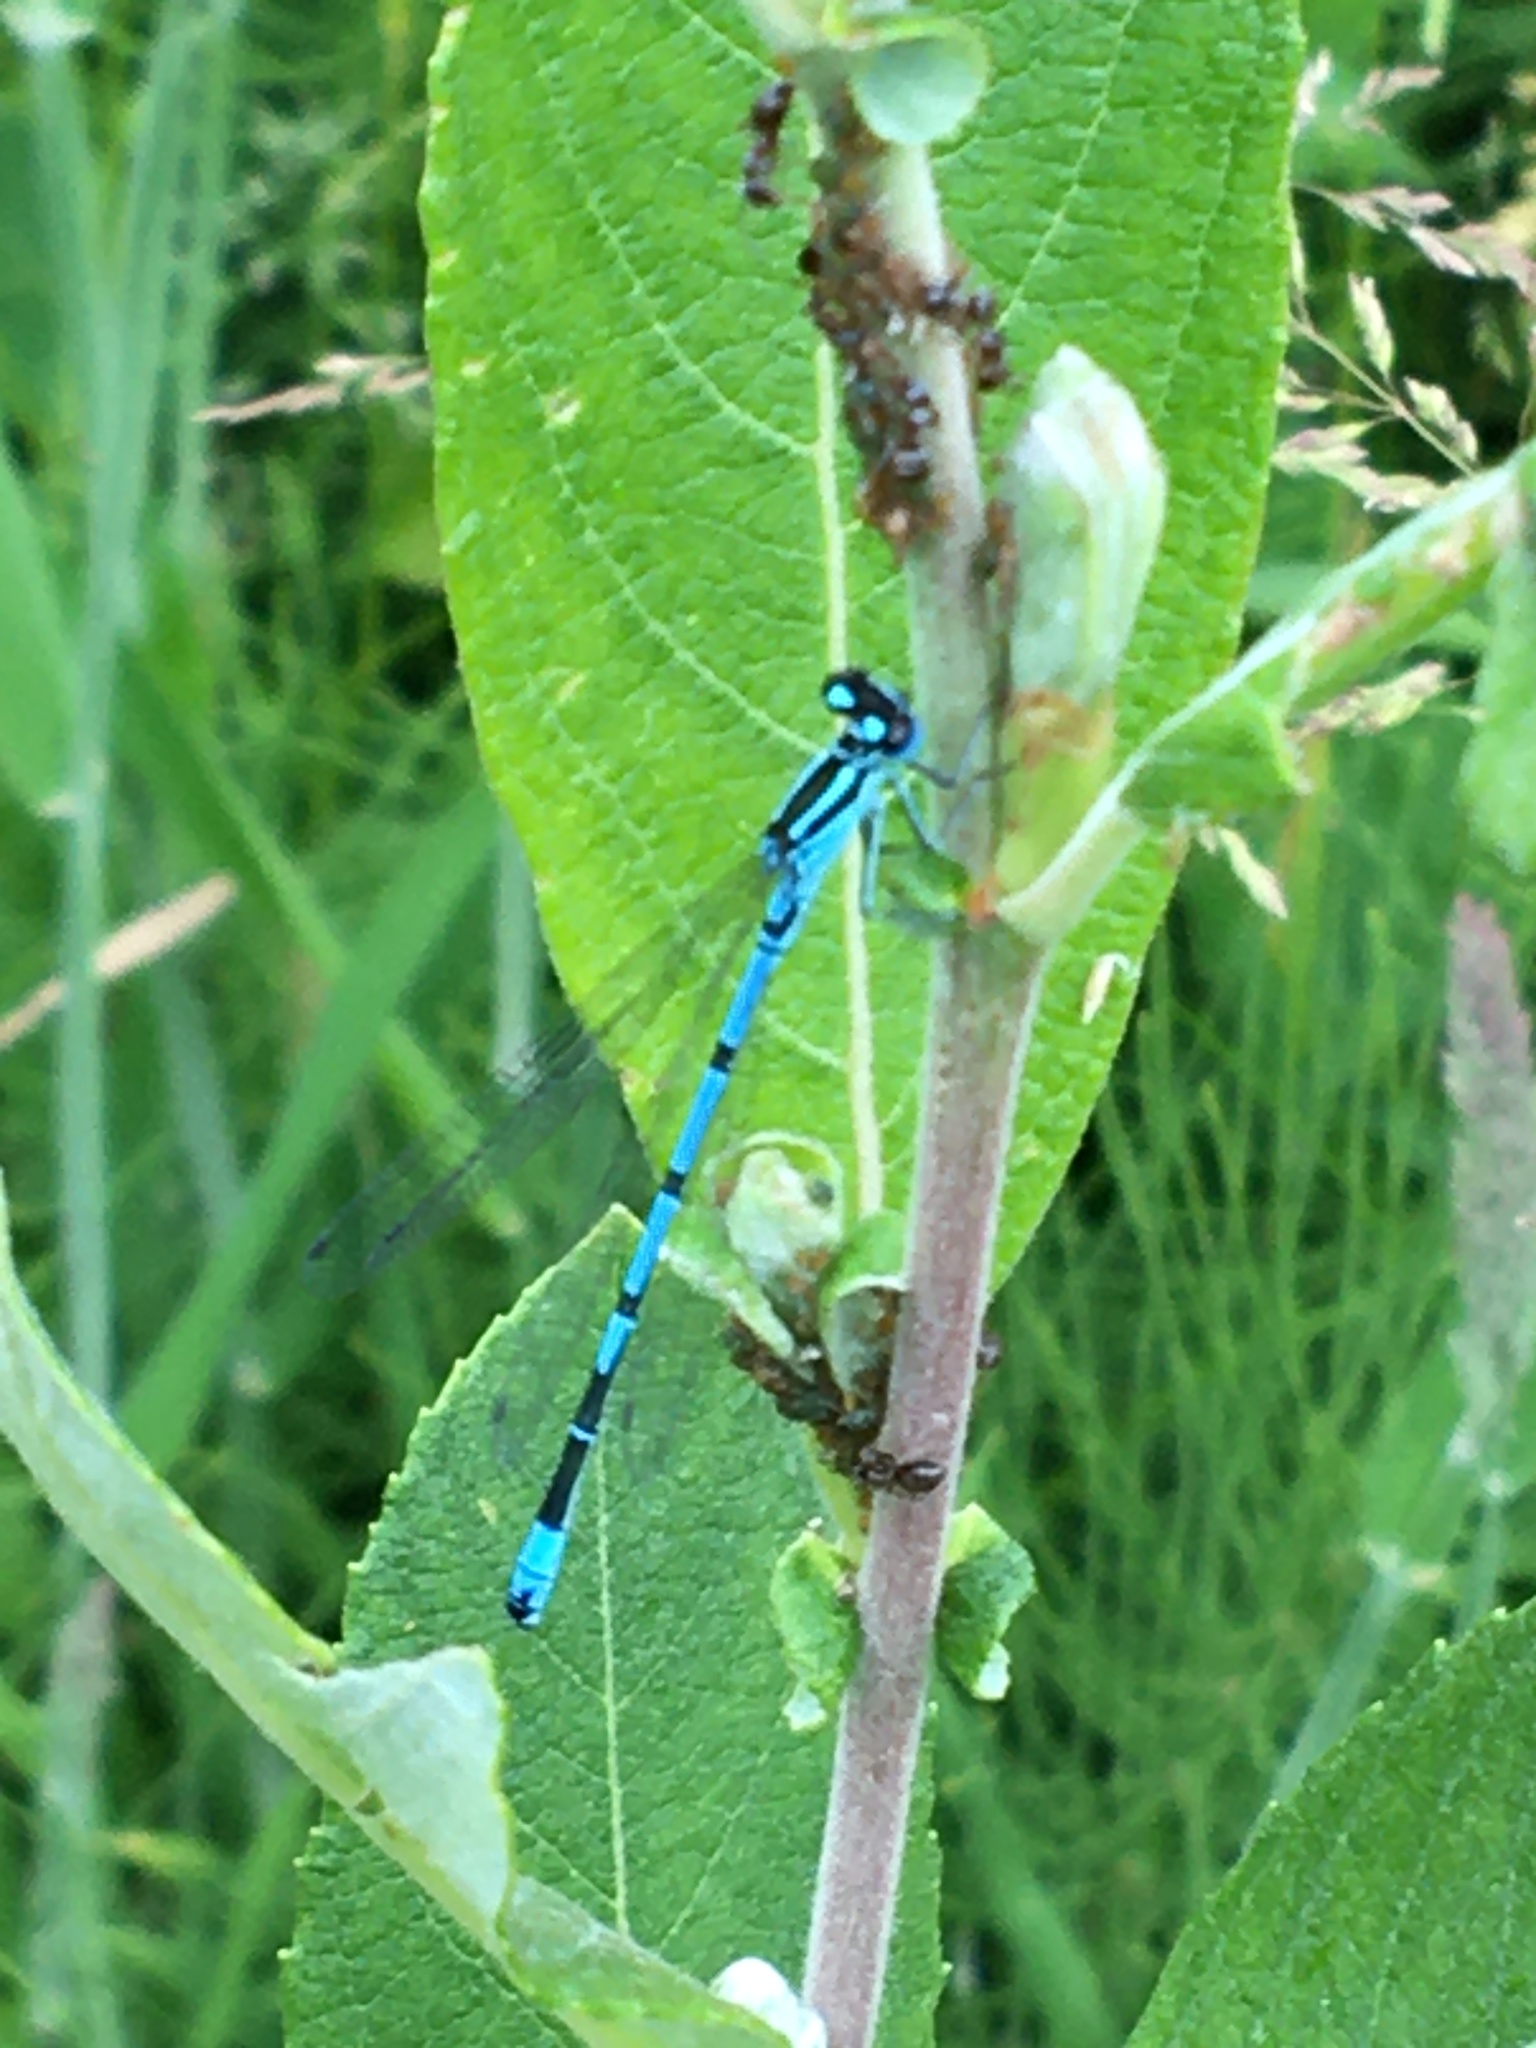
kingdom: Animalia
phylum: Arthropoda
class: Insecta
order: Odonata
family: Coenagrionidae
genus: Coenagrion
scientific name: Coenagrion puella
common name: Azure damselfly
